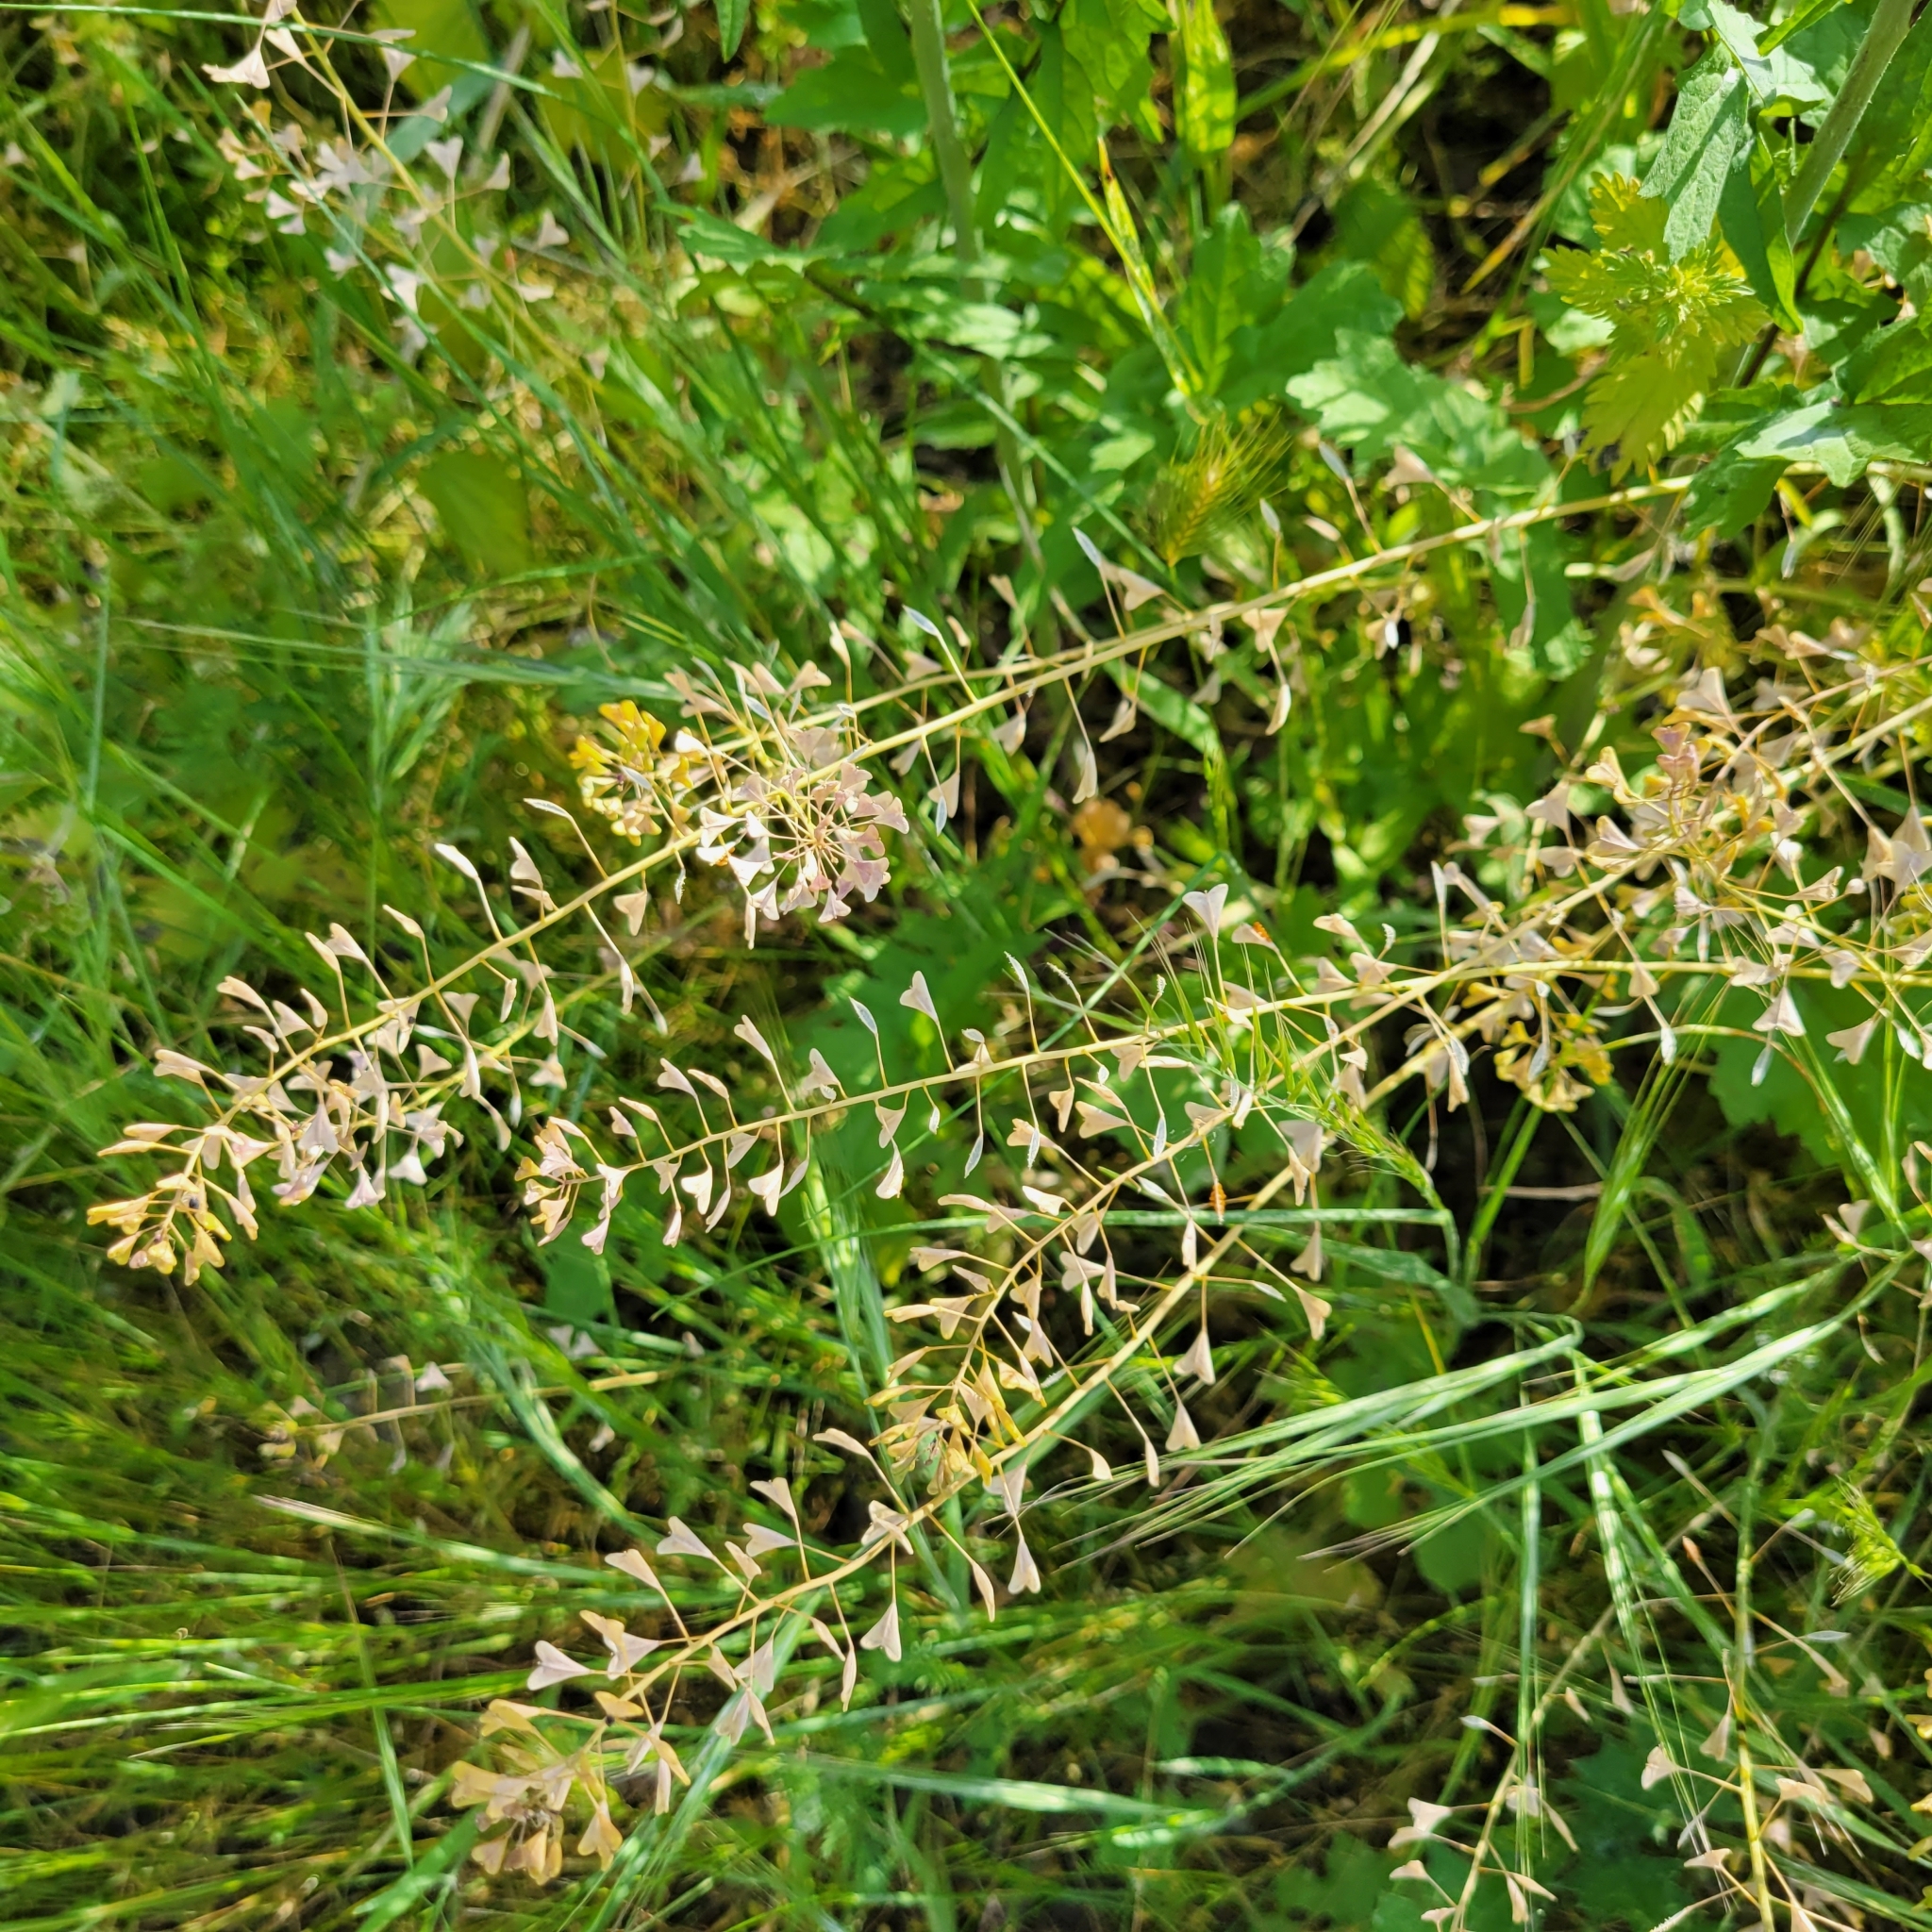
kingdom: Plantae
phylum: Tracheophyta
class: Magnoliopsida
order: Brassicales
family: Brassicaceae
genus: Capsella
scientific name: Capsella bursa-pastoris
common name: Shepherd's purse
